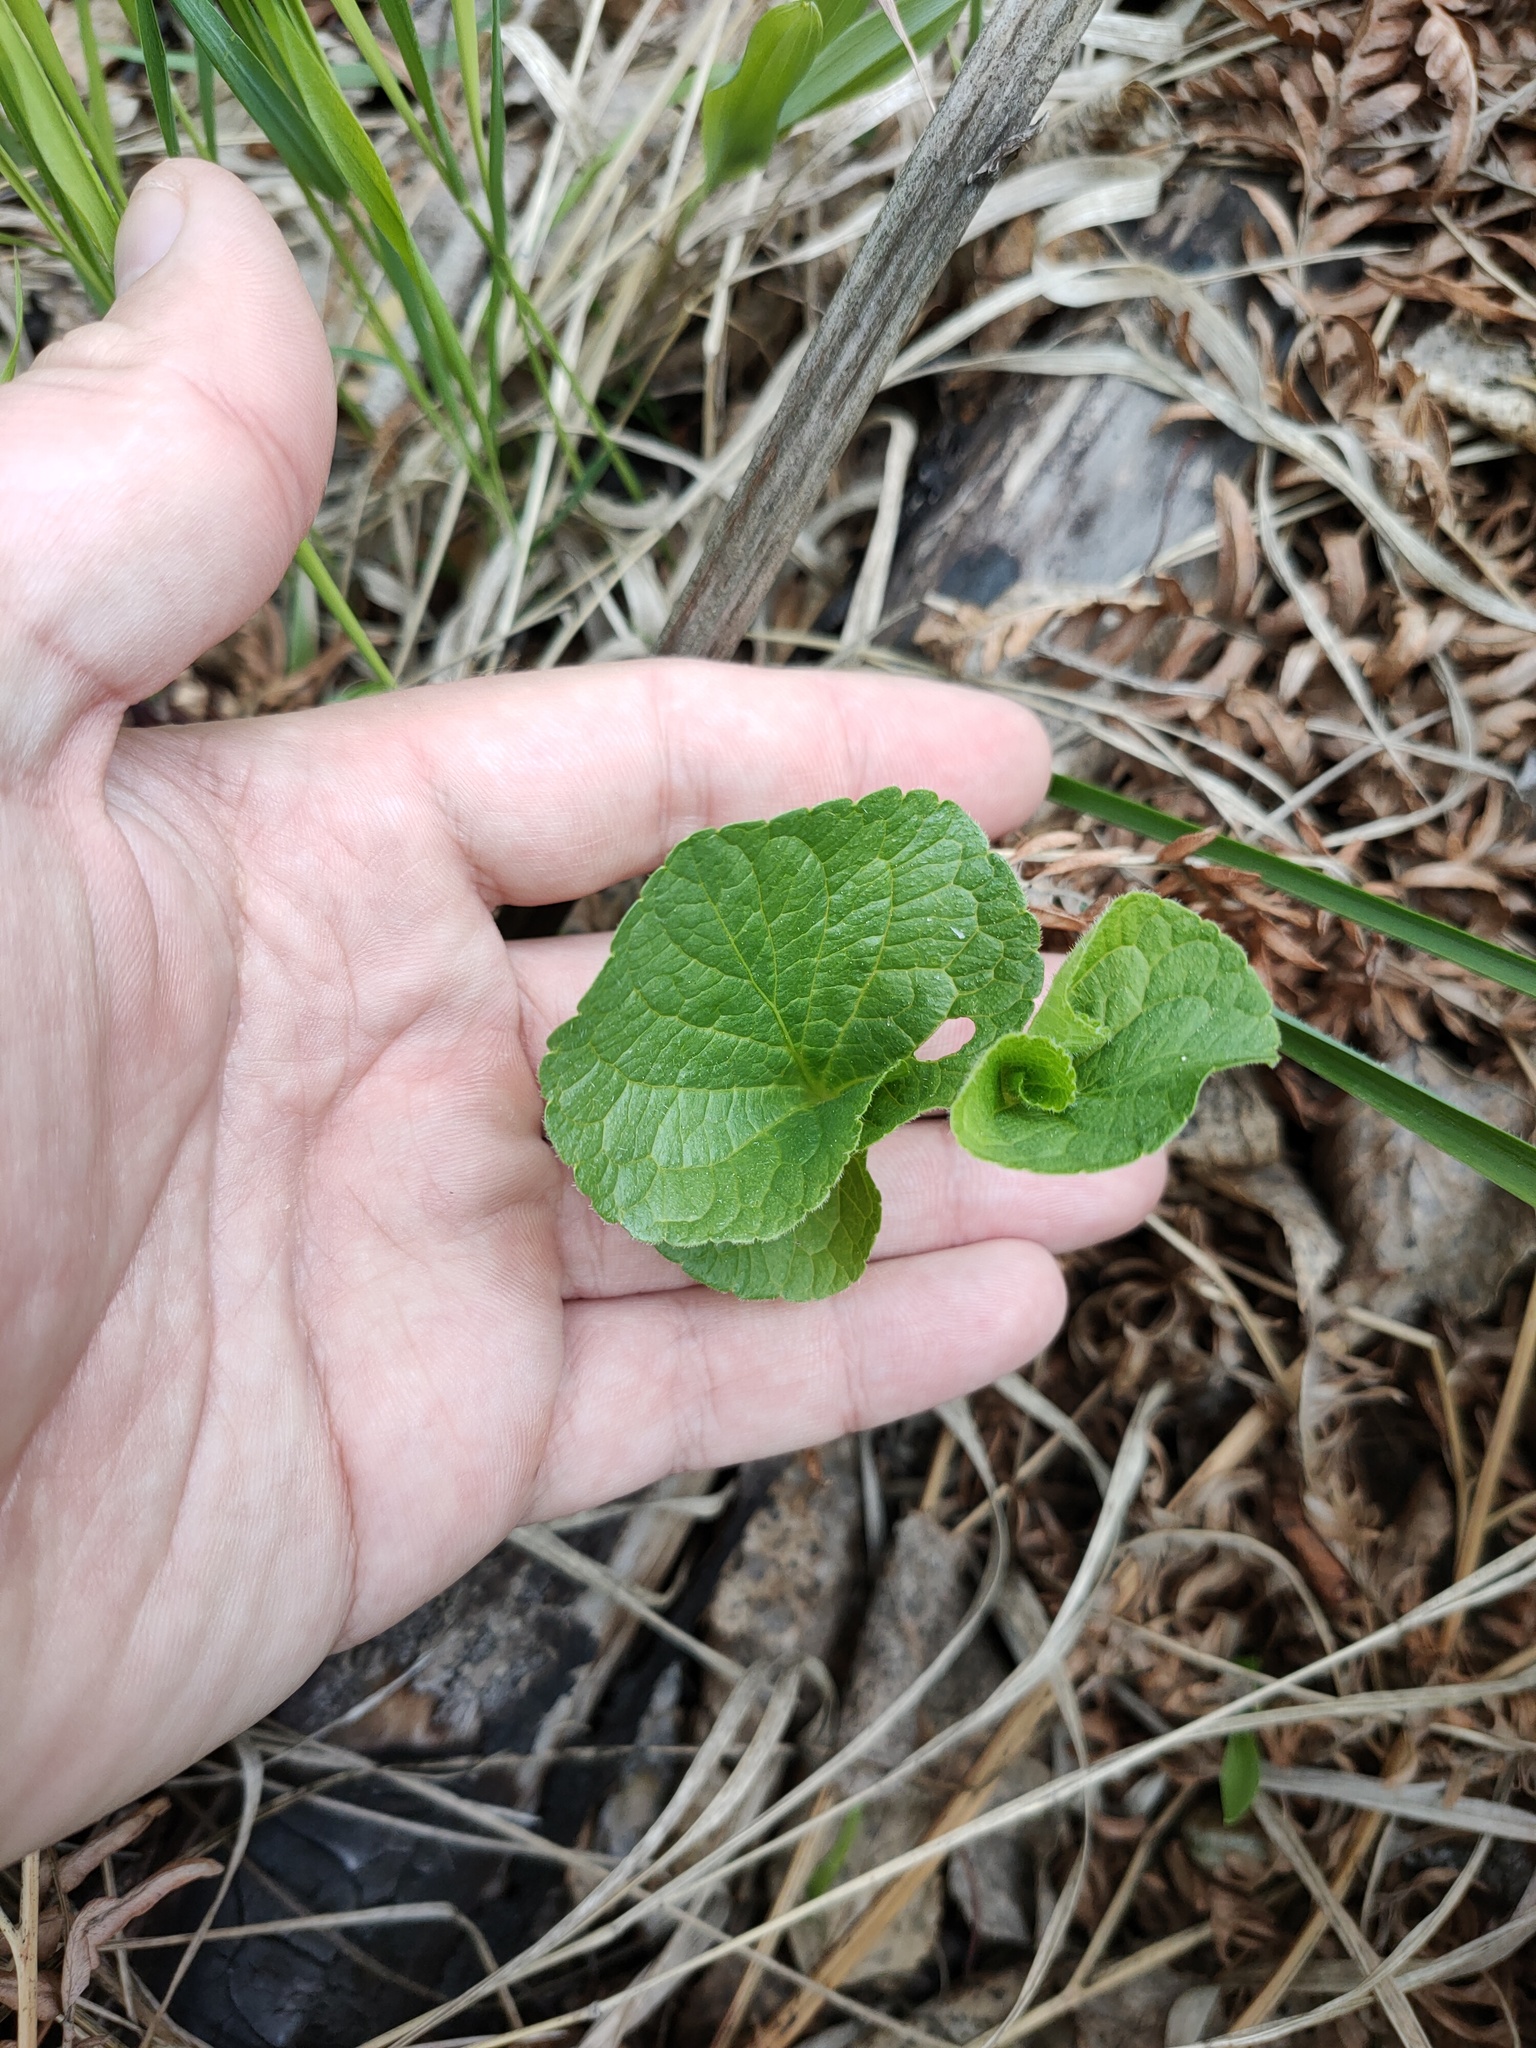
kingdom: Plantae
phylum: Tracheophyta
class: Magnoliopsida
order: Malpighiales
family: Violaceae
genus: Viola
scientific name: Viola mirabilis
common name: Wonder violet
